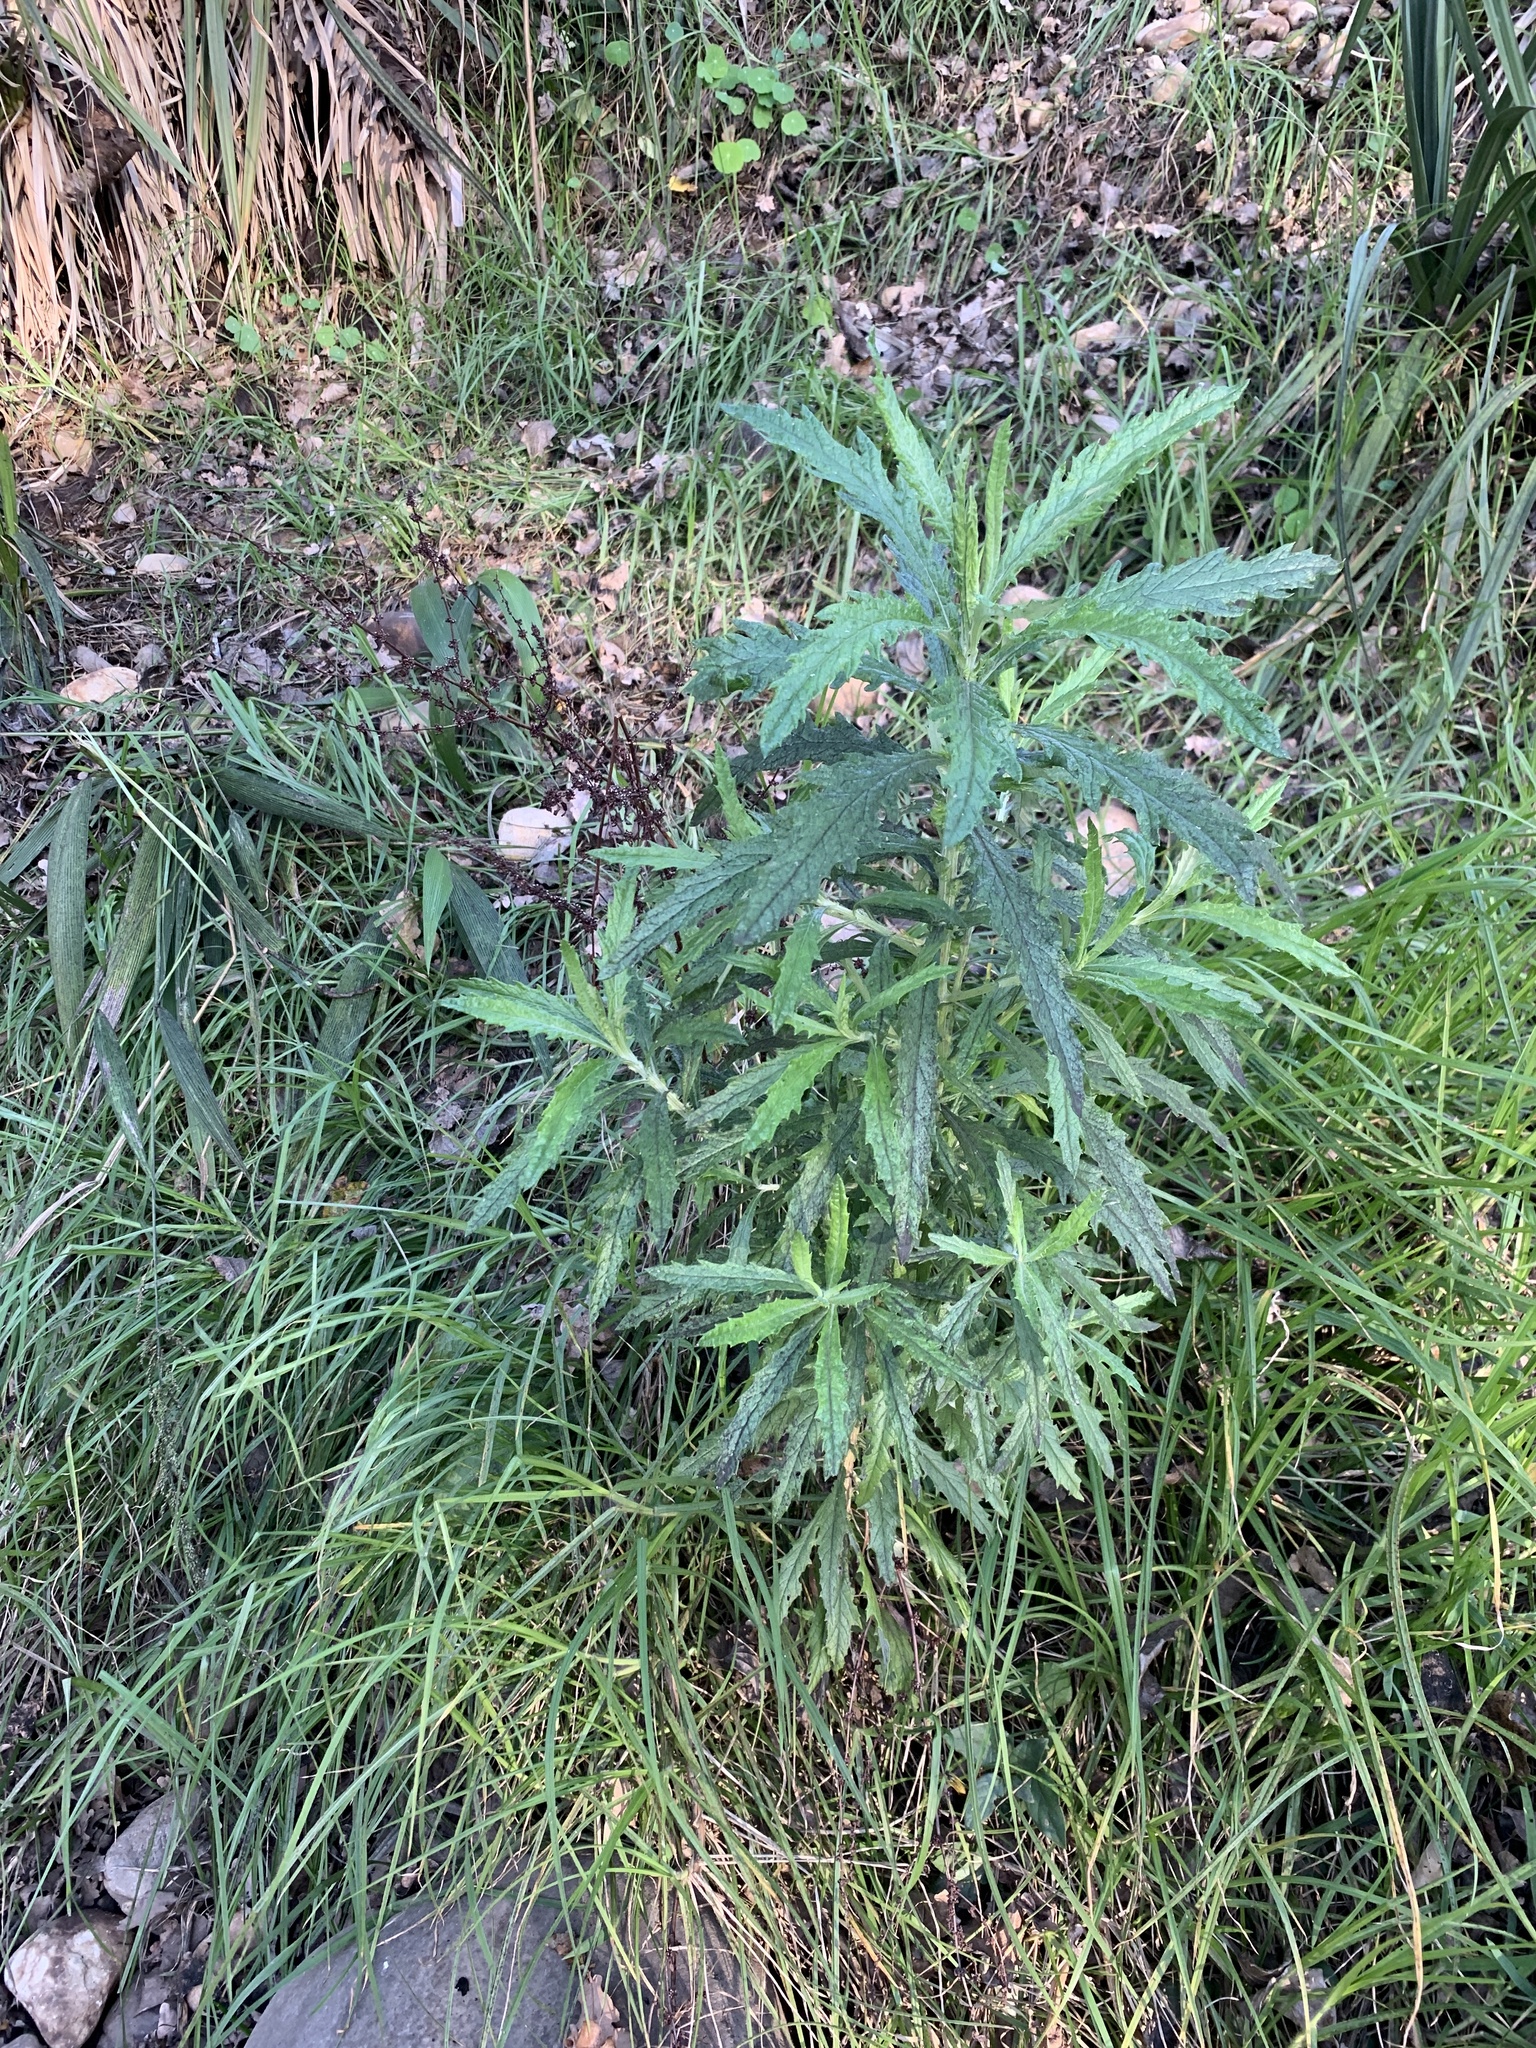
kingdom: Plantae
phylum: Tracheophyta
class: Magnoliopsida
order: Asterales
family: Asteraceae
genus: Senecio
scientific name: Senecio pterophorus
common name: Shoddy ragwort
